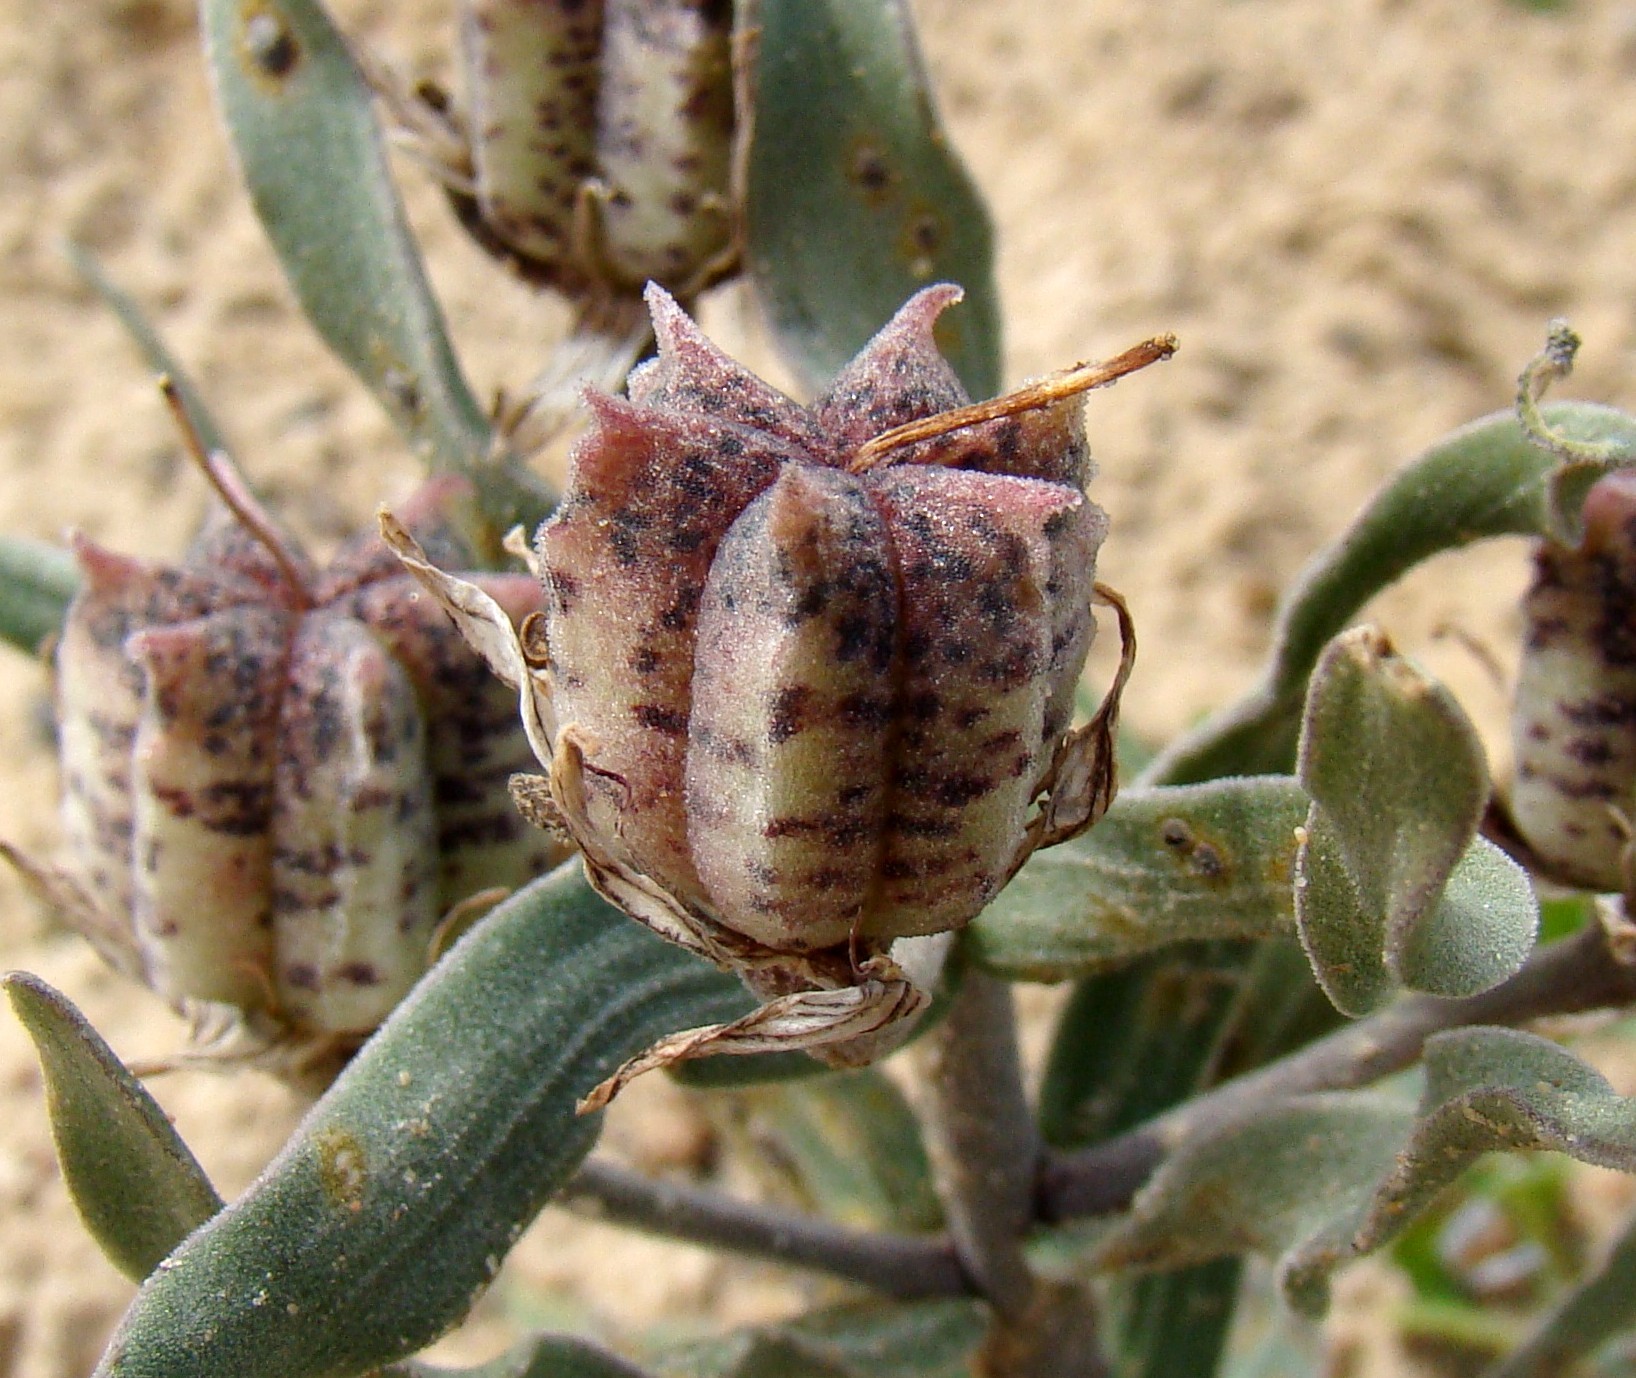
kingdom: Plantae
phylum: Tracheophyta
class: Liliopsida
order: Liliales
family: Liliaceae
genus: Fritillaria
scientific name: Fritillaria karelinii
